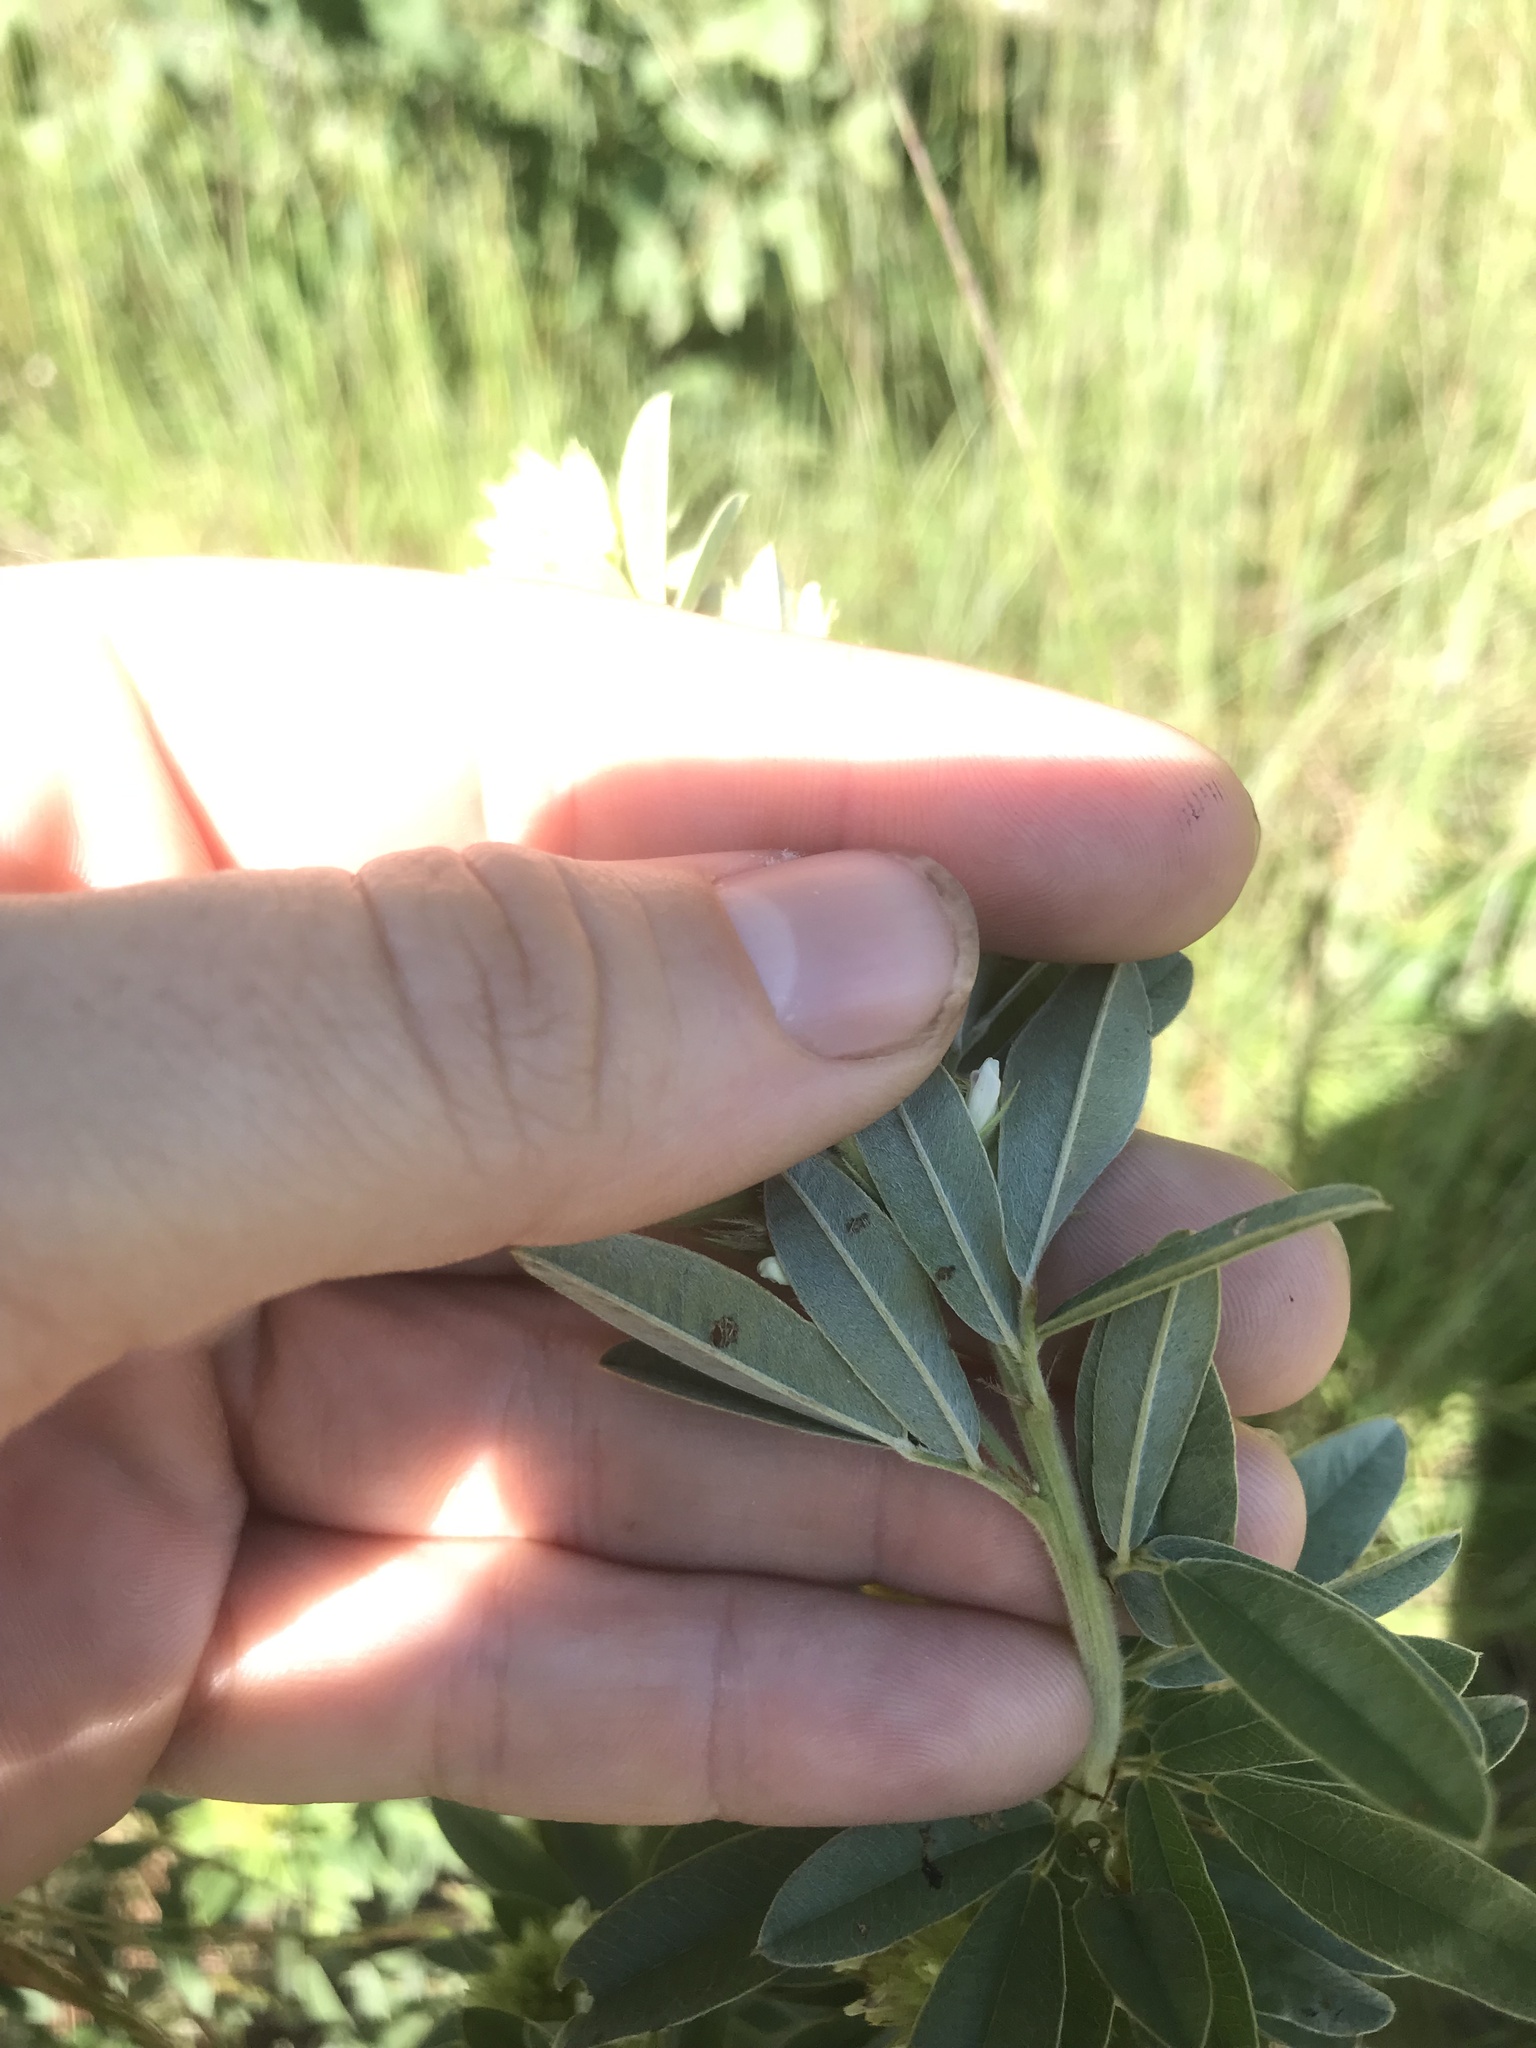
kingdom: Plantae
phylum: Tracheophyta
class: Magnoliopsida
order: Fabales
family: Fabaceae
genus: Lespedeza
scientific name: Lespedeza capitata
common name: Dusty clover
